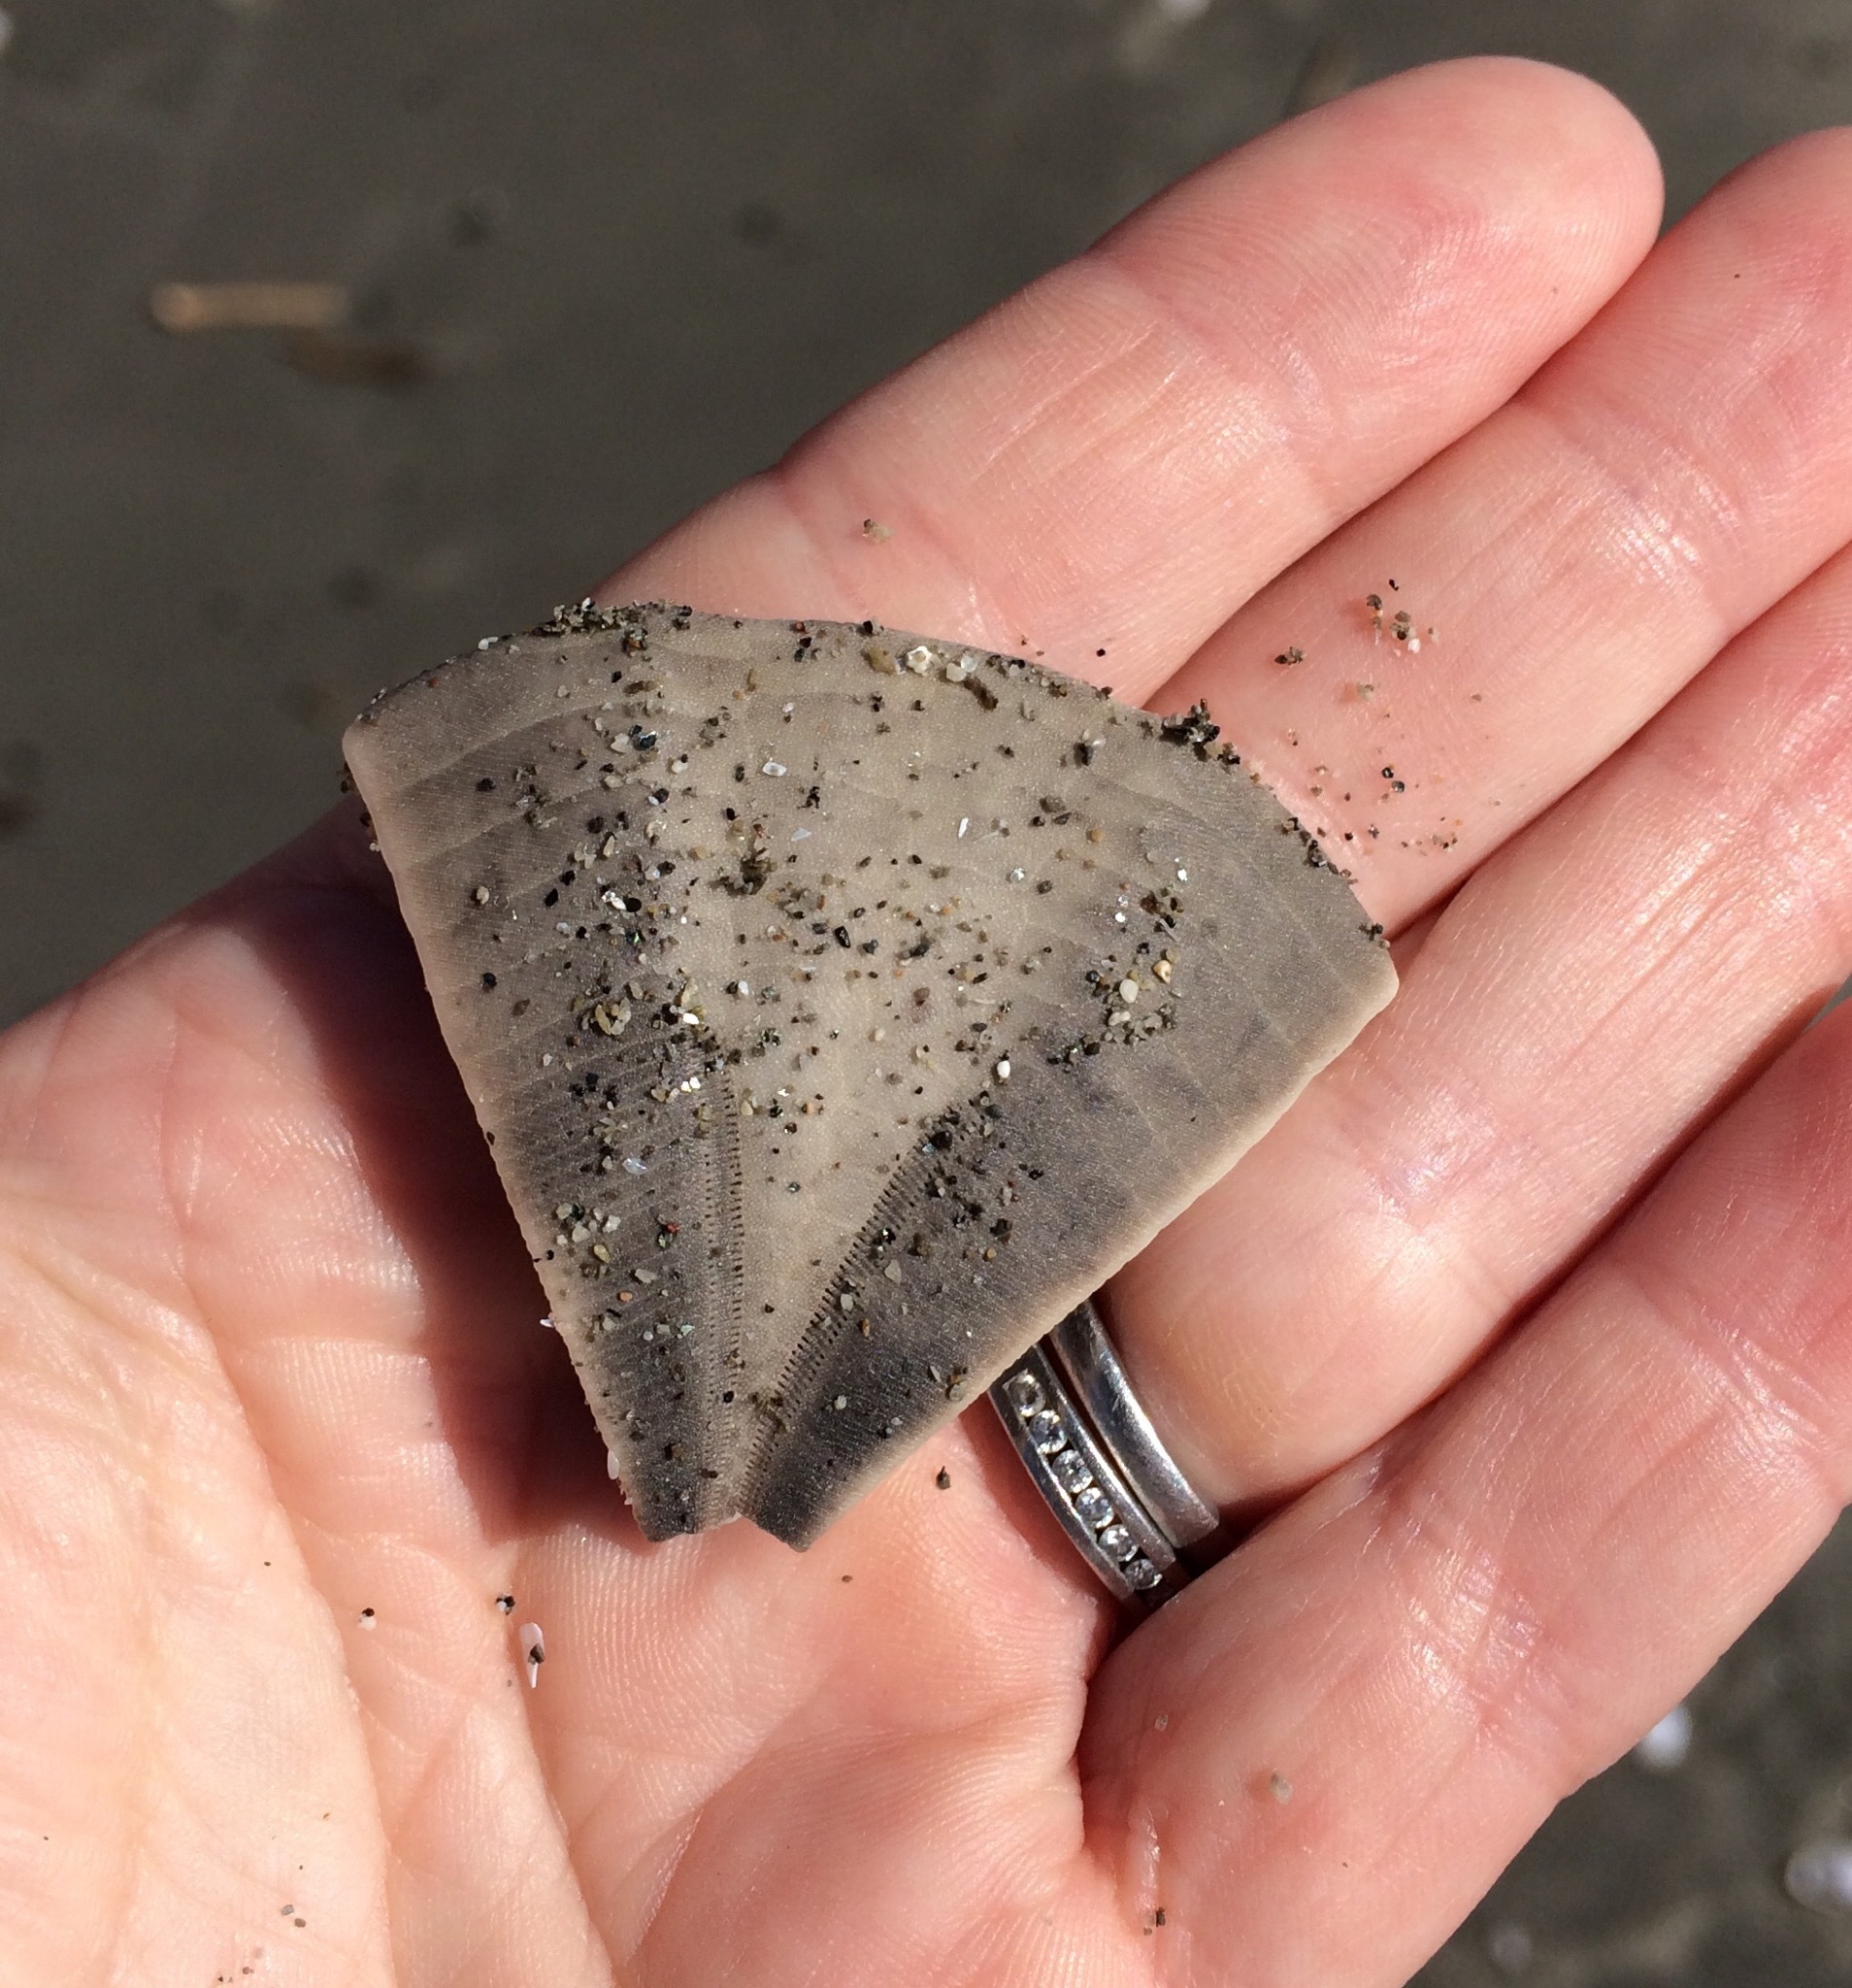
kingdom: Animalia
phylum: Echinodermata
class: Echinoidea
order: Clypeasteroida
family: Clypeasteridae
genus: Fellaster
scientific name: Fellaster zelandiae
